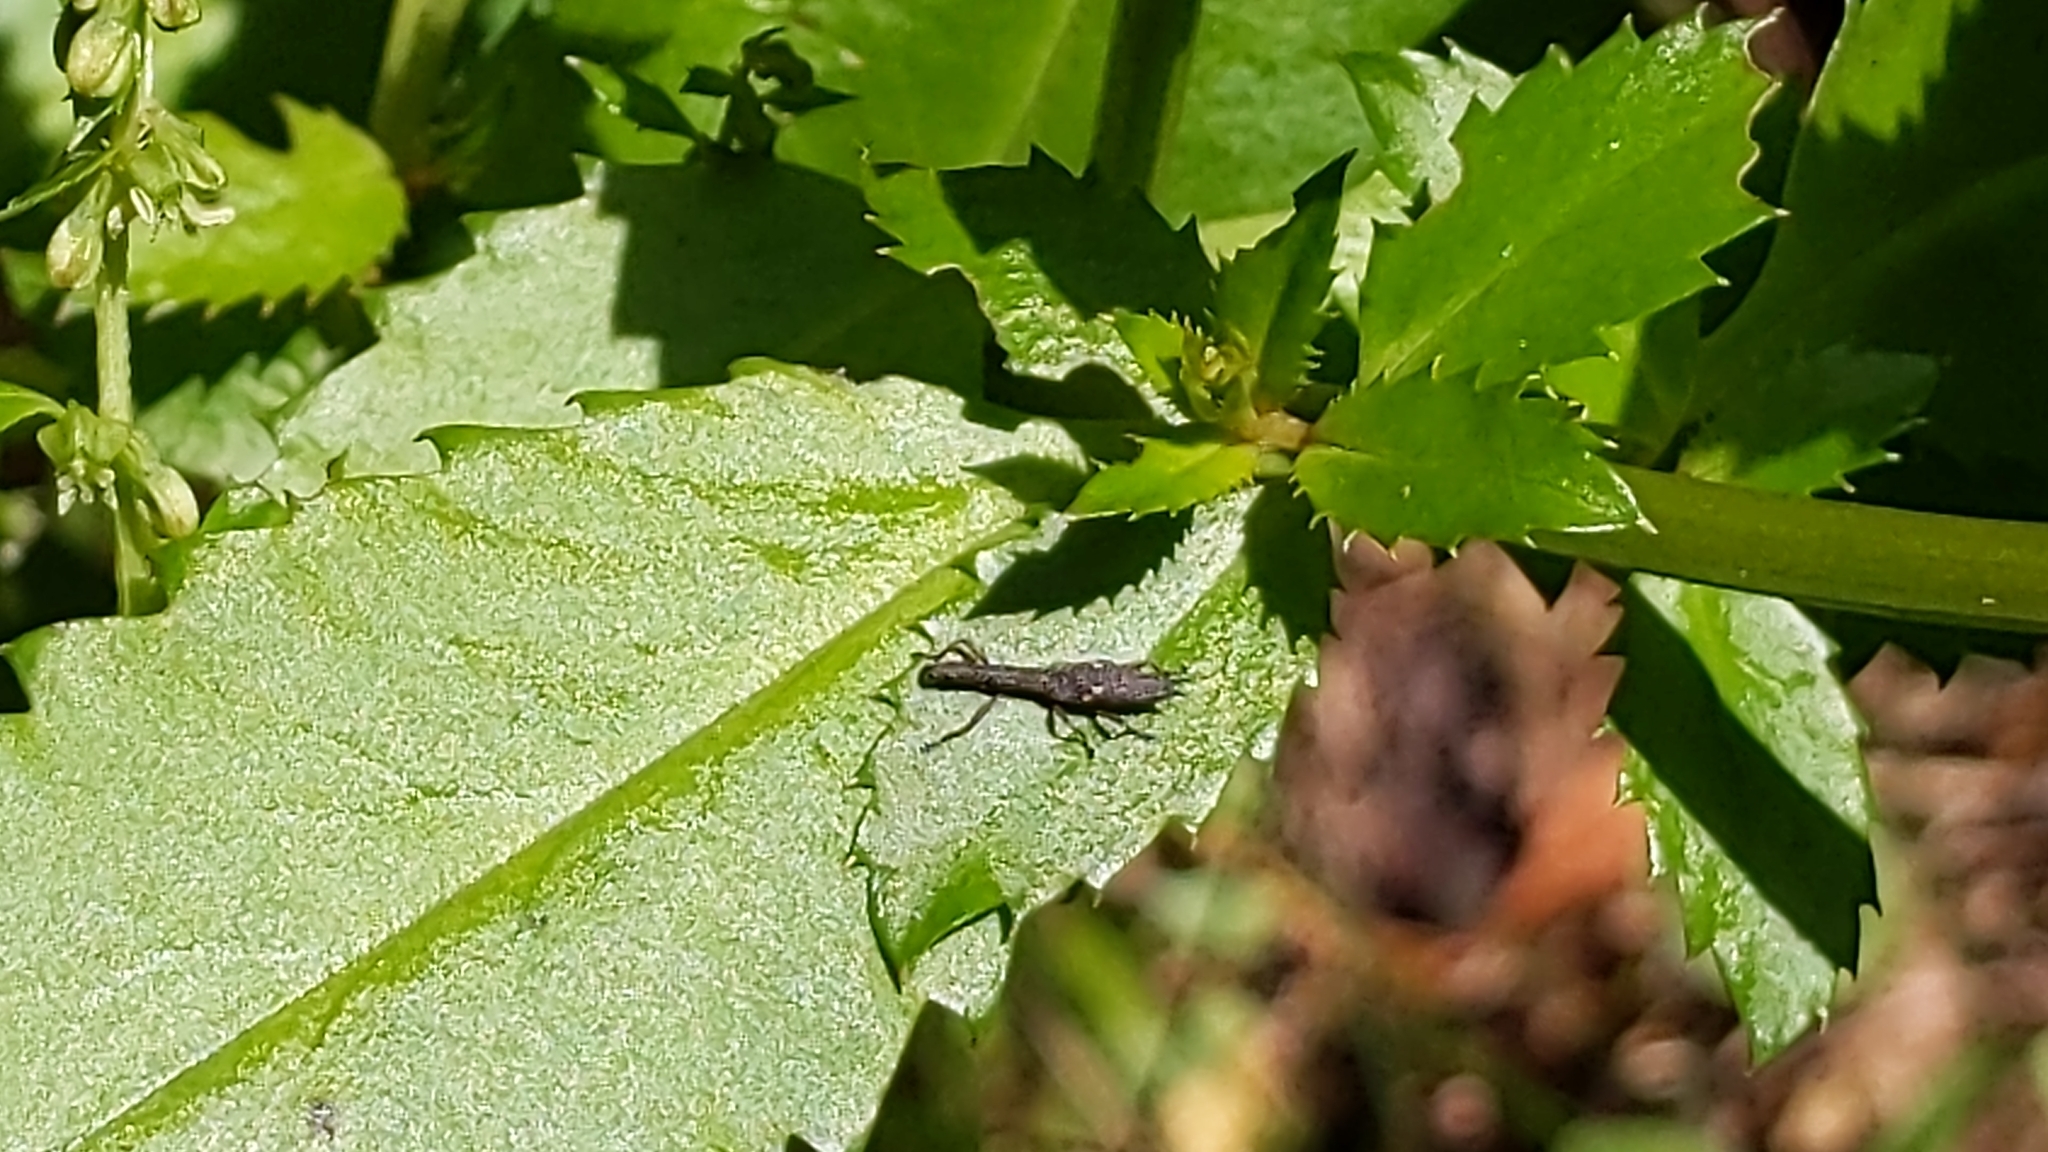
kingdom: Animalia
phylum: Arthropoda
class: Insecta
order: Coleoptera
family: Curculionidae
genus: Rhadinosomus
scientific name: Rhadinosomus acuminatus
